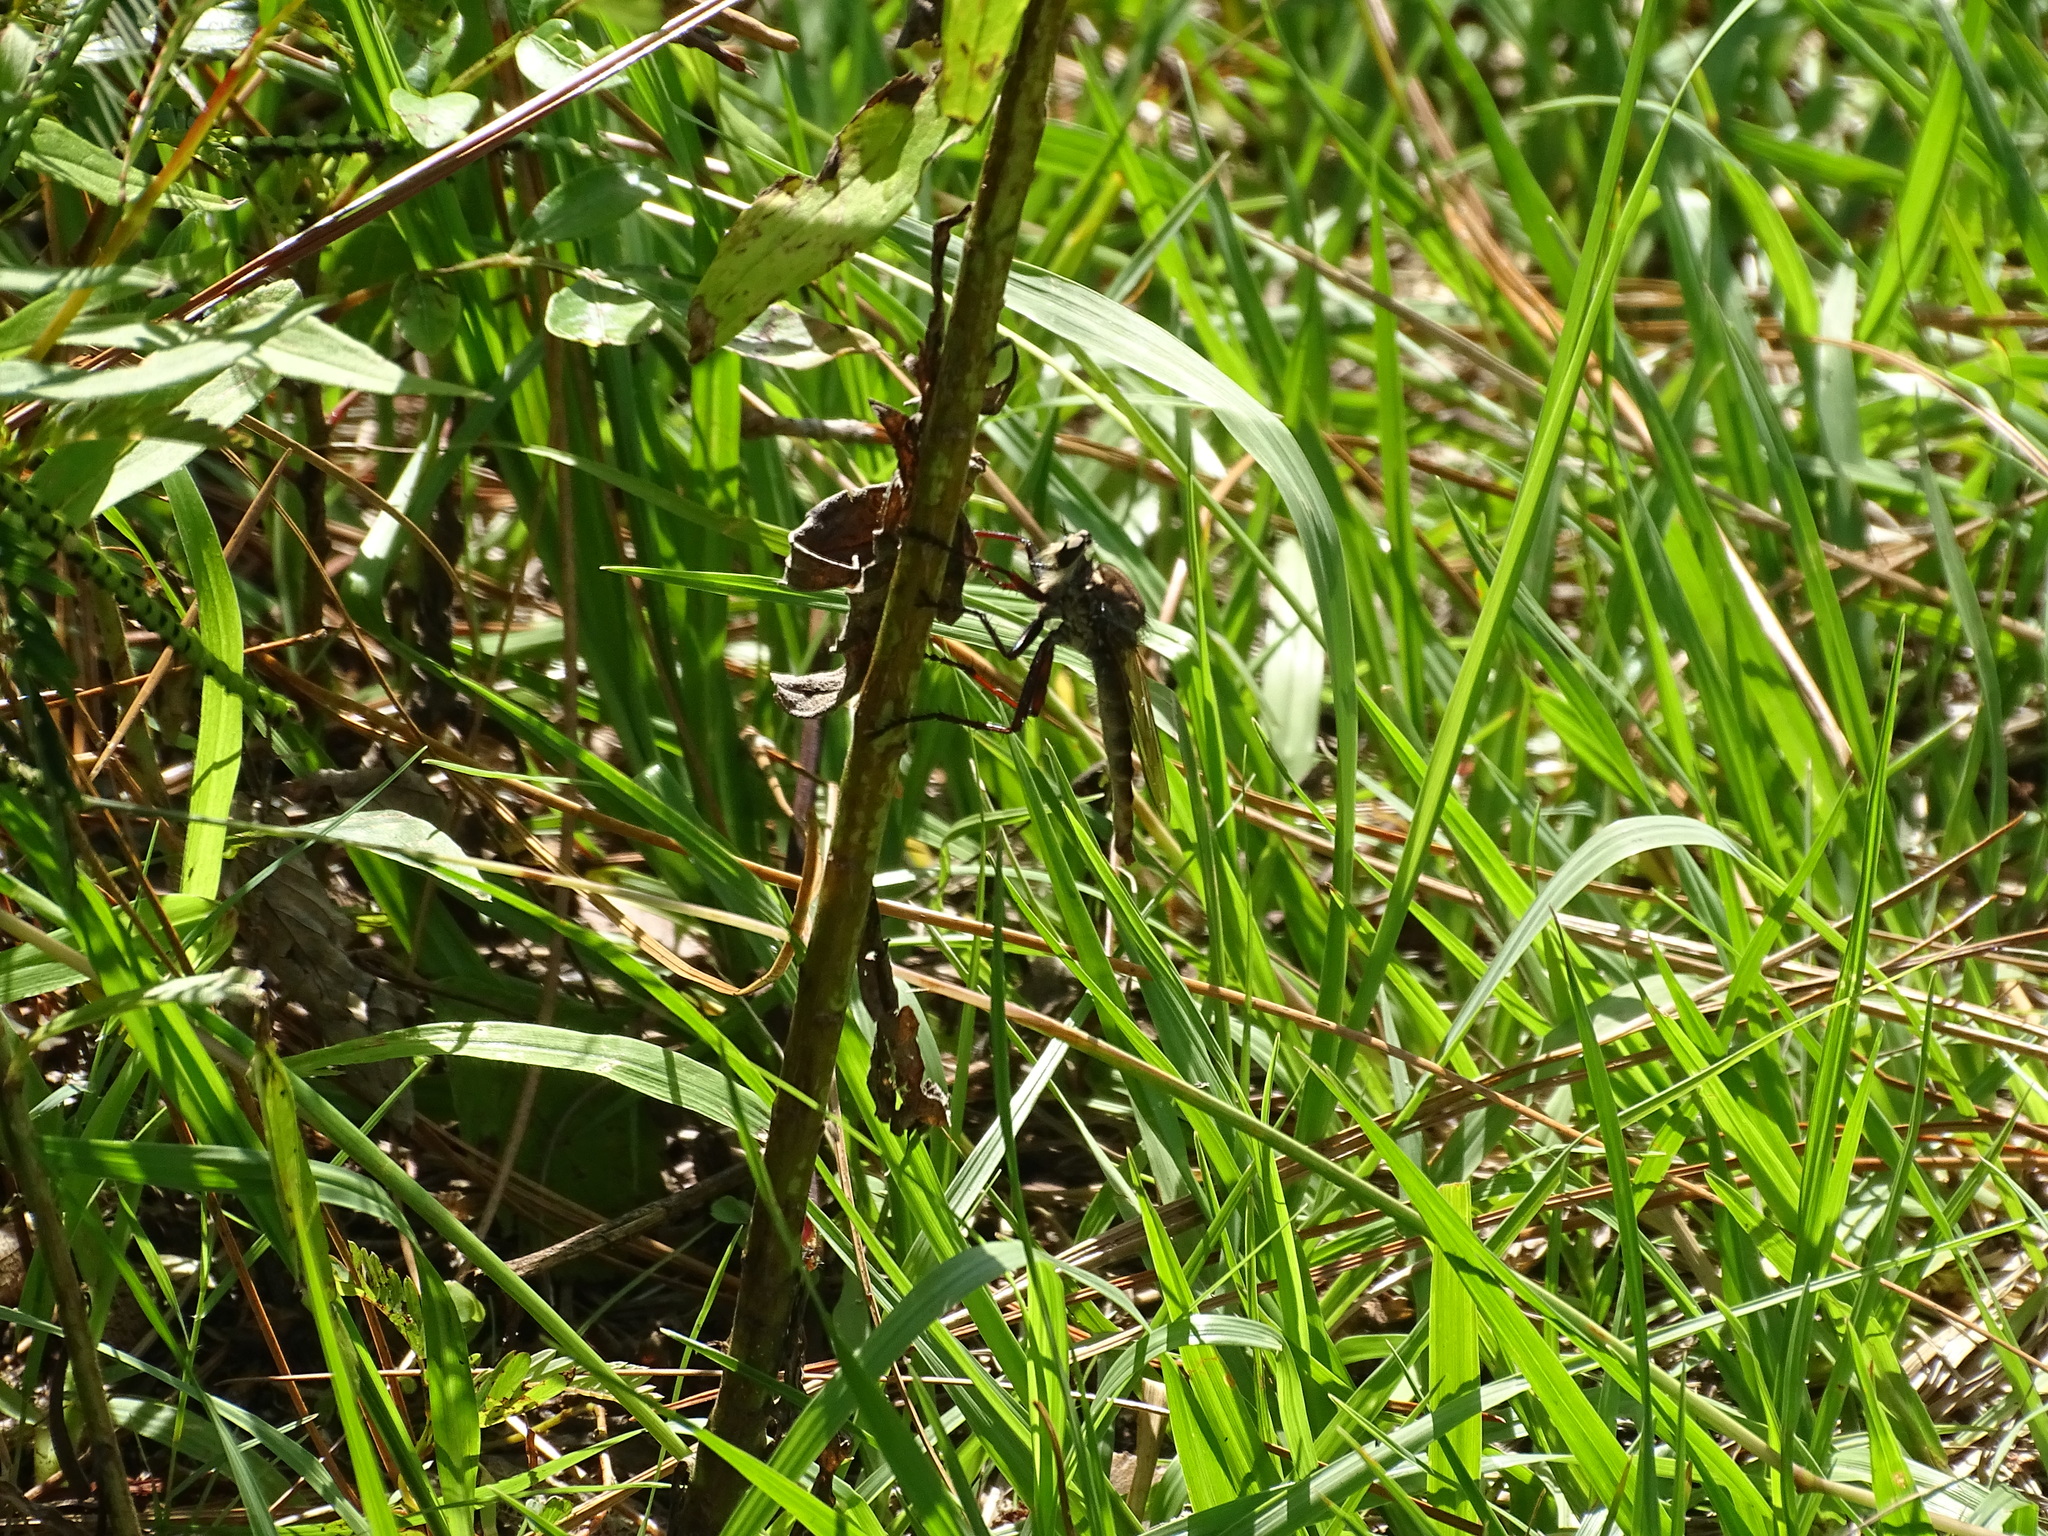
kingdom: Animalia
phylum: Arthropoda
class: Insecta
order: Diptera
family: Asilidae
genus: Proctacanthus
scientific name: Proctacanthus longus
